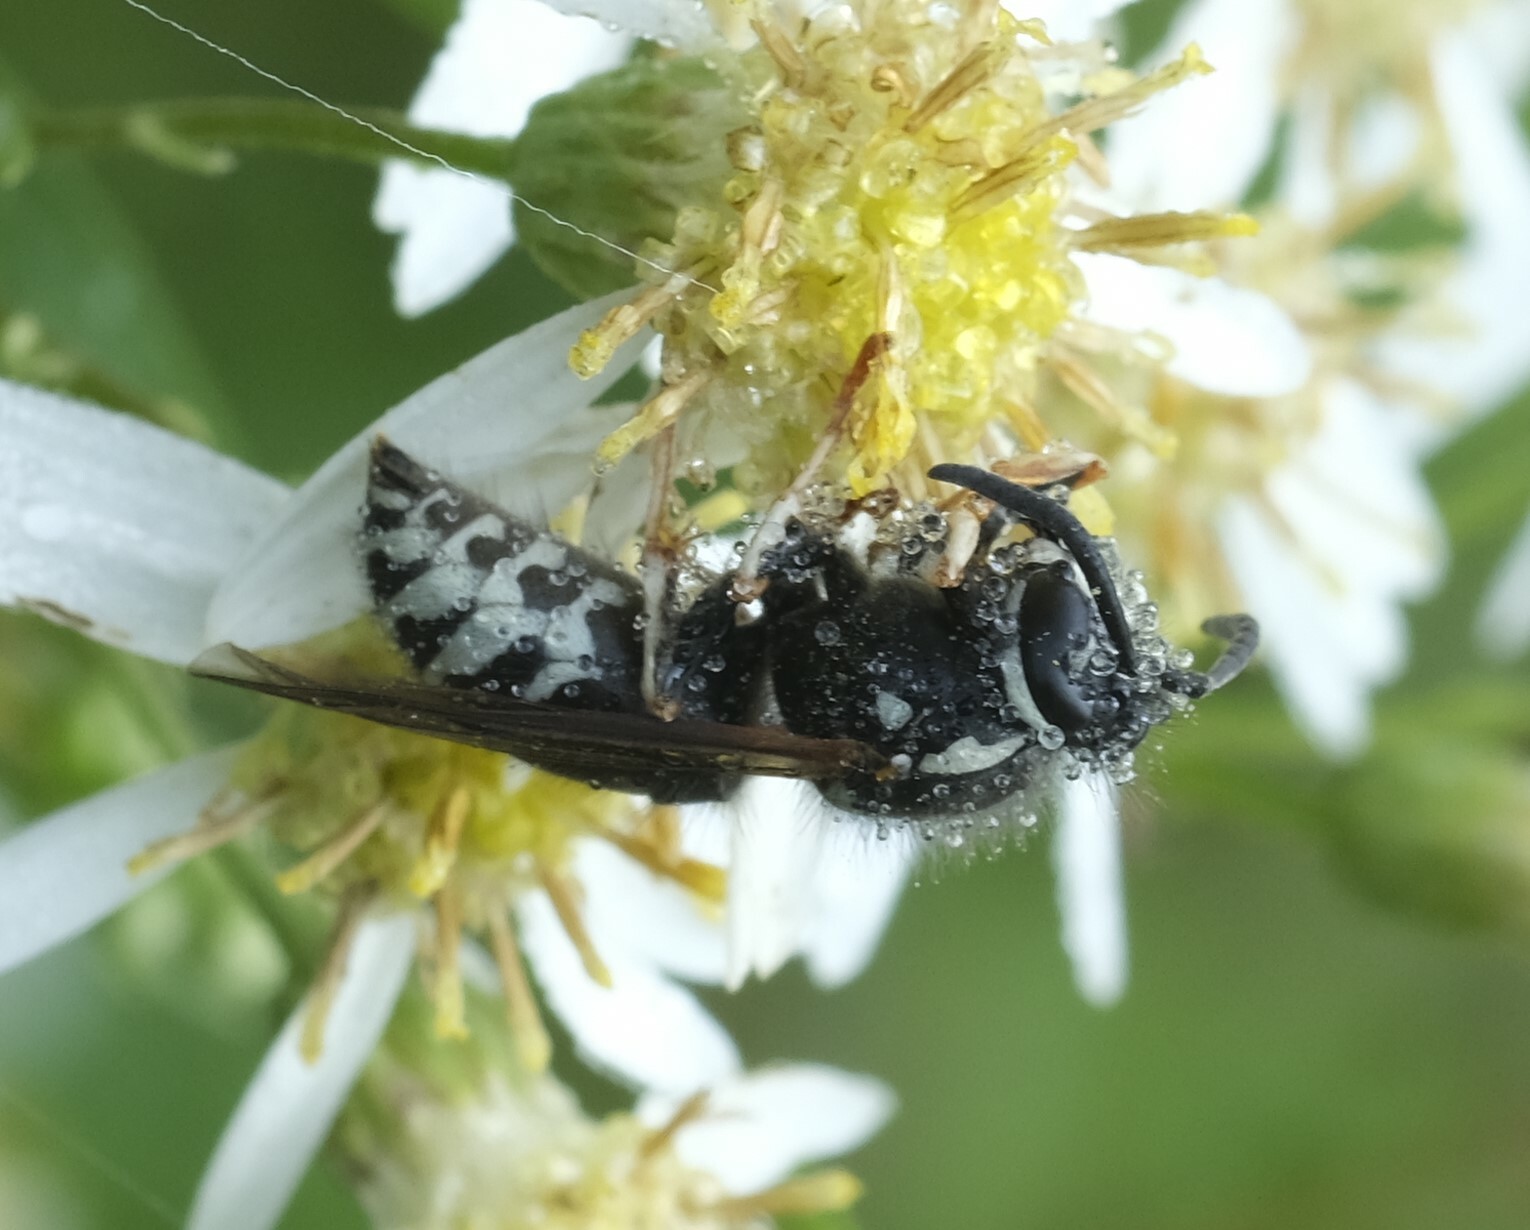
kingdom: Animalia
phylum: Arthropoda
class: Insecta
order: Hymenoptera
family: Vespidae
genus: Vespula
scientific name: Vespula consobrina
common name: Blackjacket
